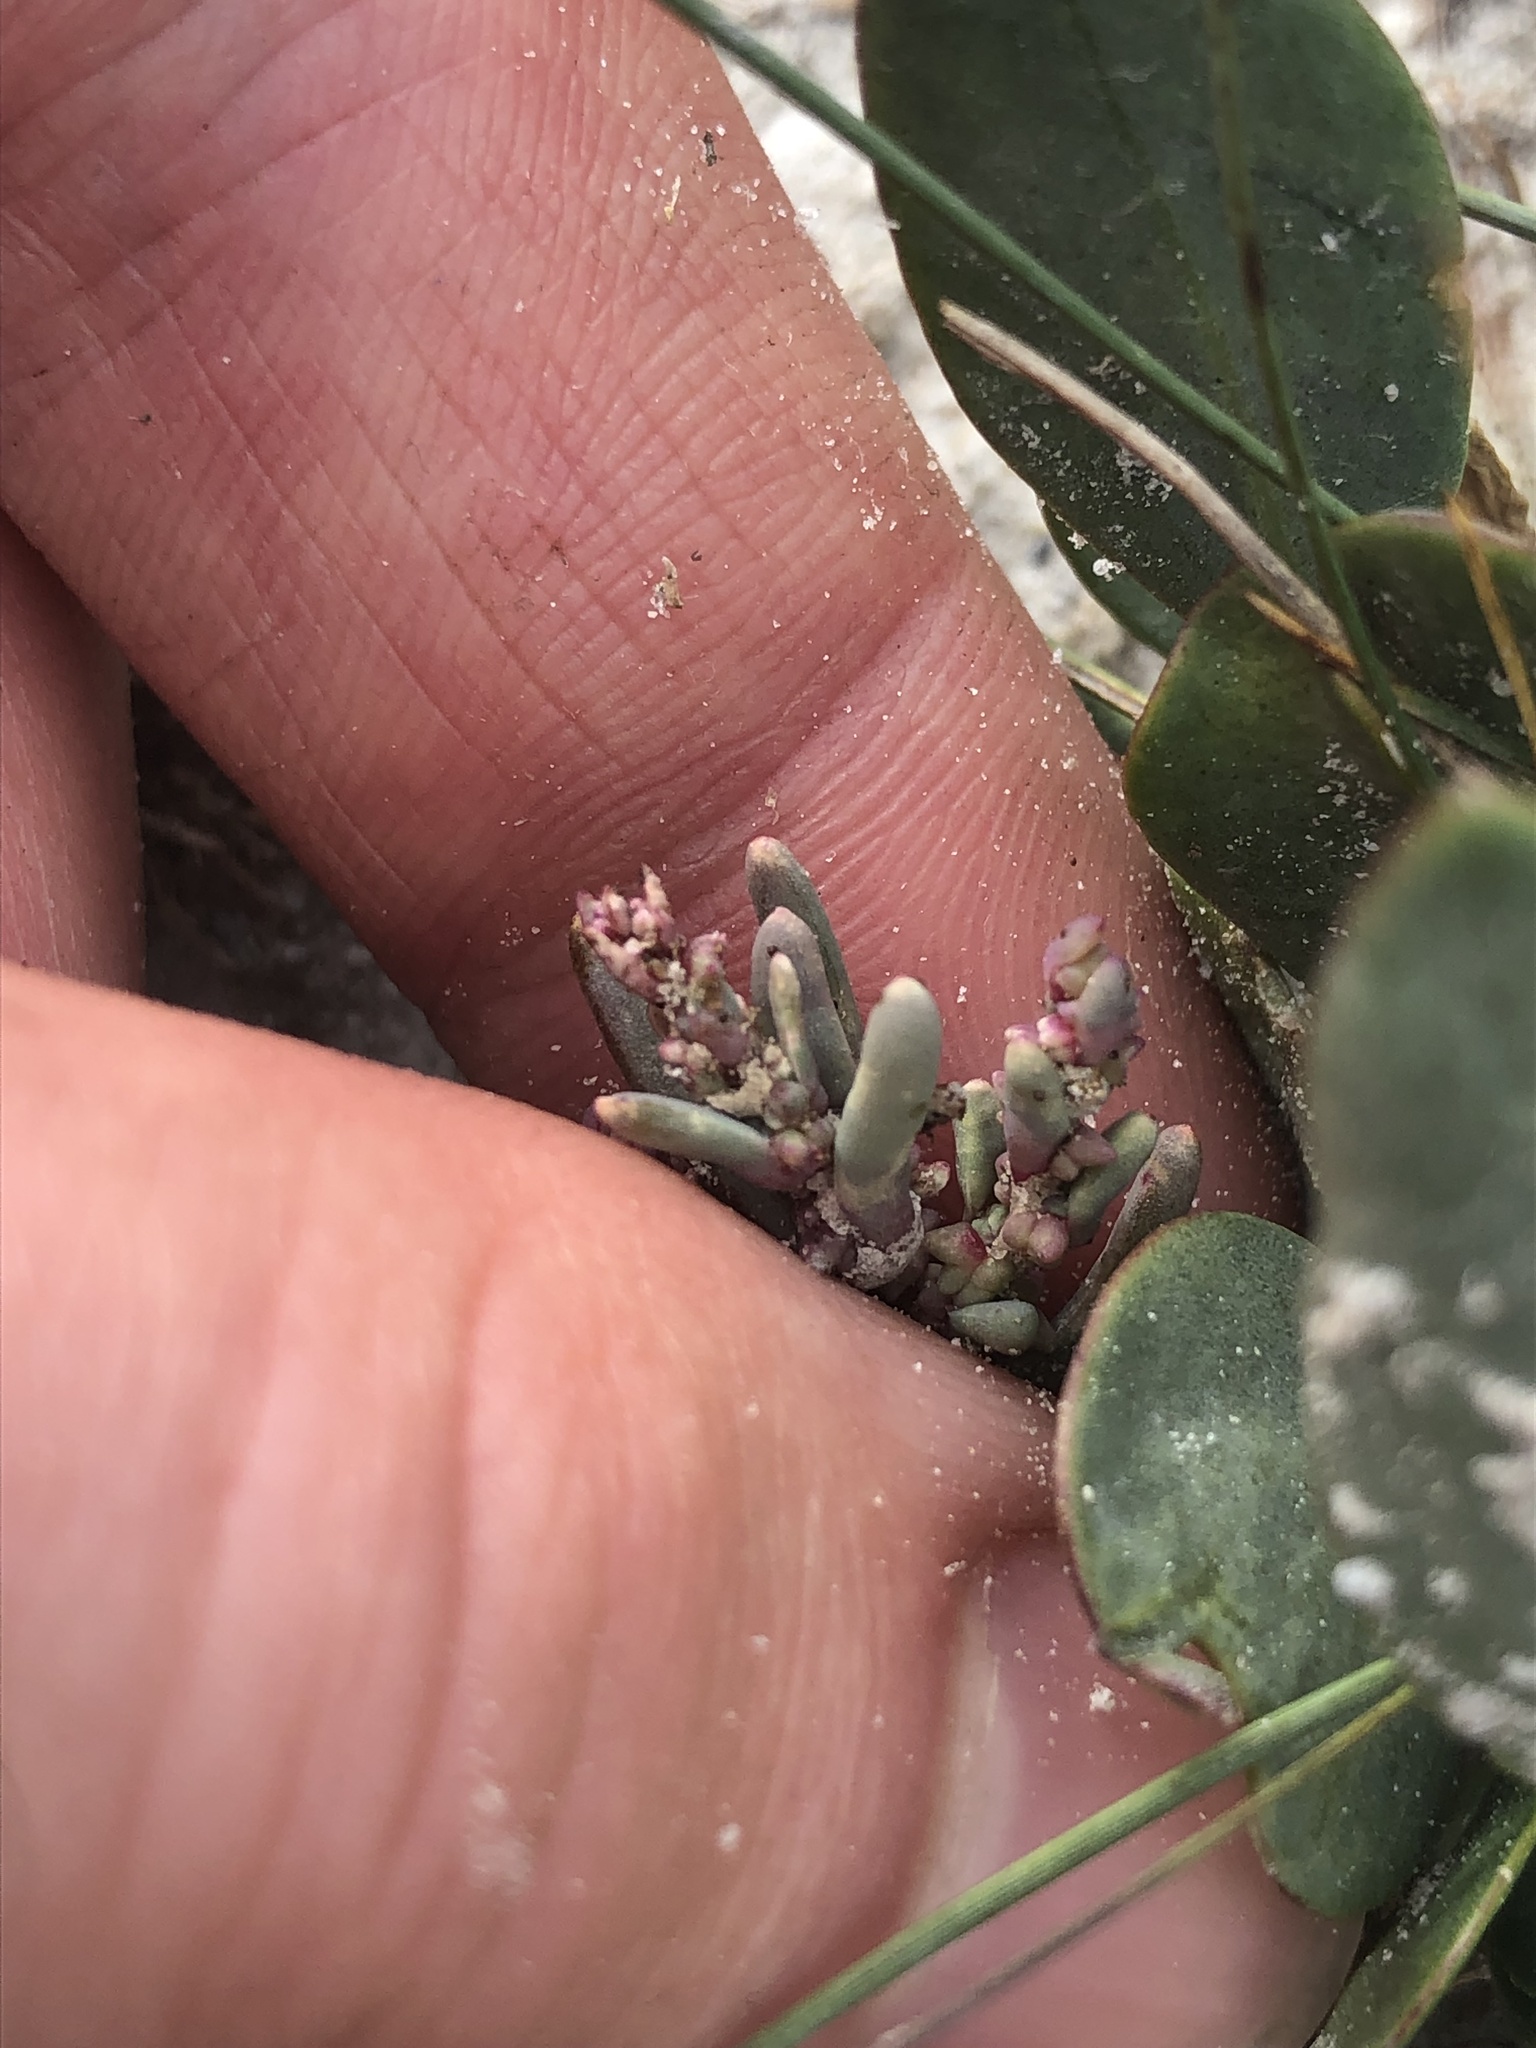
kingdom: Plantae
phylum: Tracheophyta
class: Magnoliopsida
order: Caryophyllales
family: Amaranthaceae
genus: Suaeda
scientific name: Suaeda pannonica
